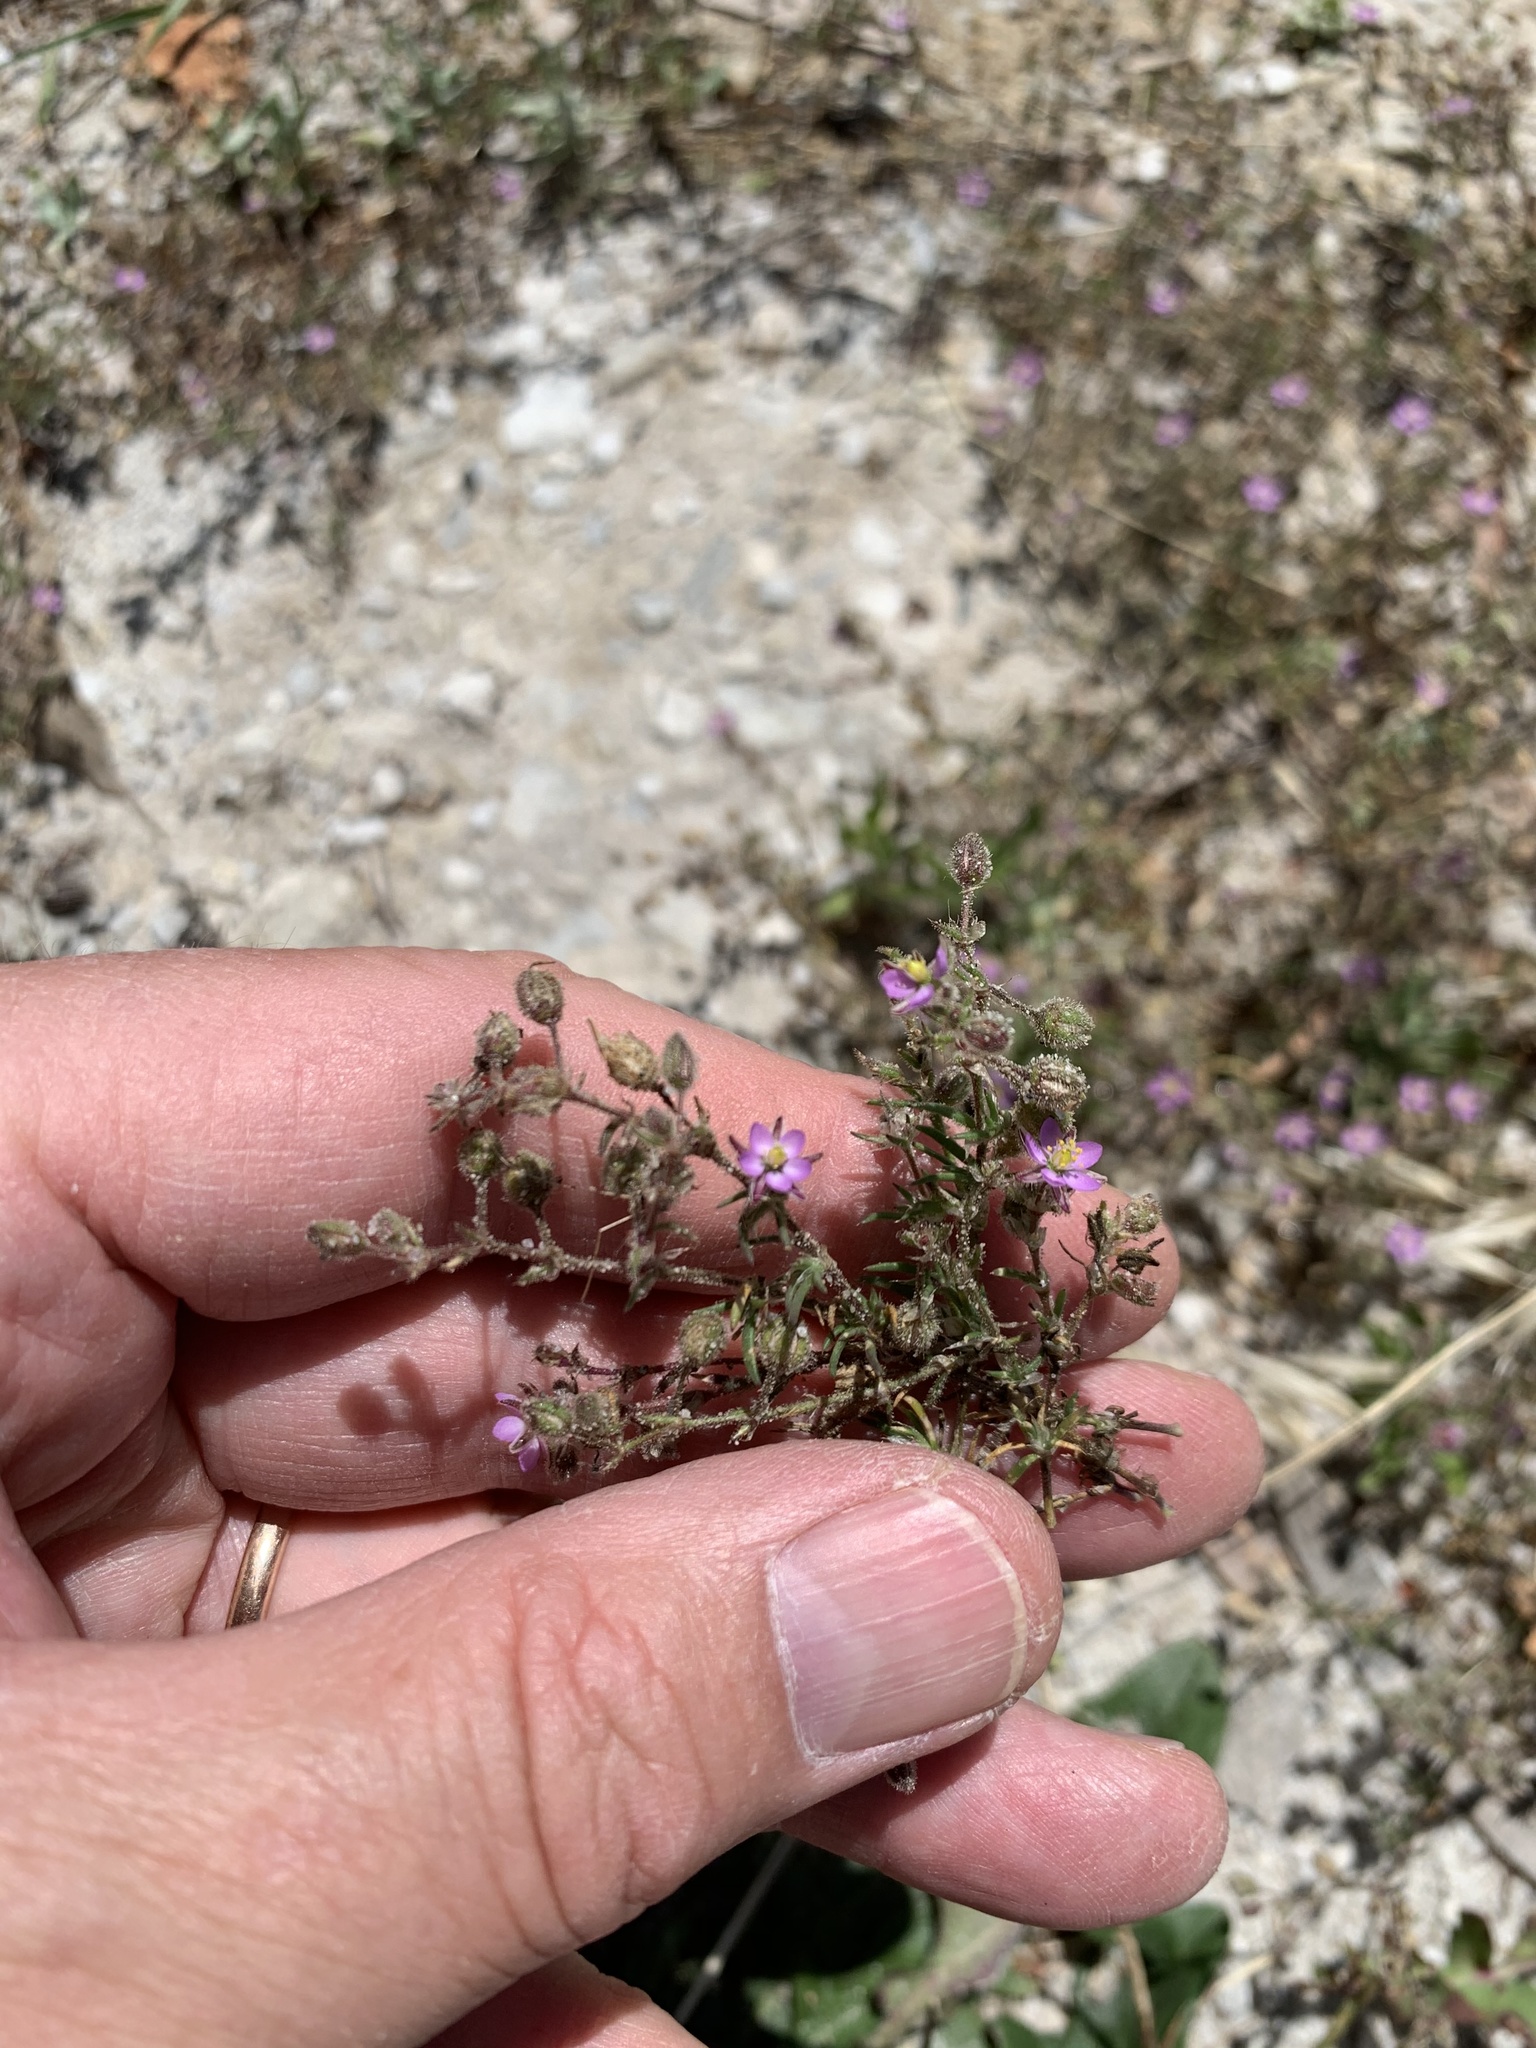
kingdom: Plantae
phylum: Tracheophyta
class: Magnoliopsida
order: Caryophyllales
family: Caryophyllaceae
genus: Spergularia
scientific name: Spergularia rubra
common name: Red sand-spurrey
